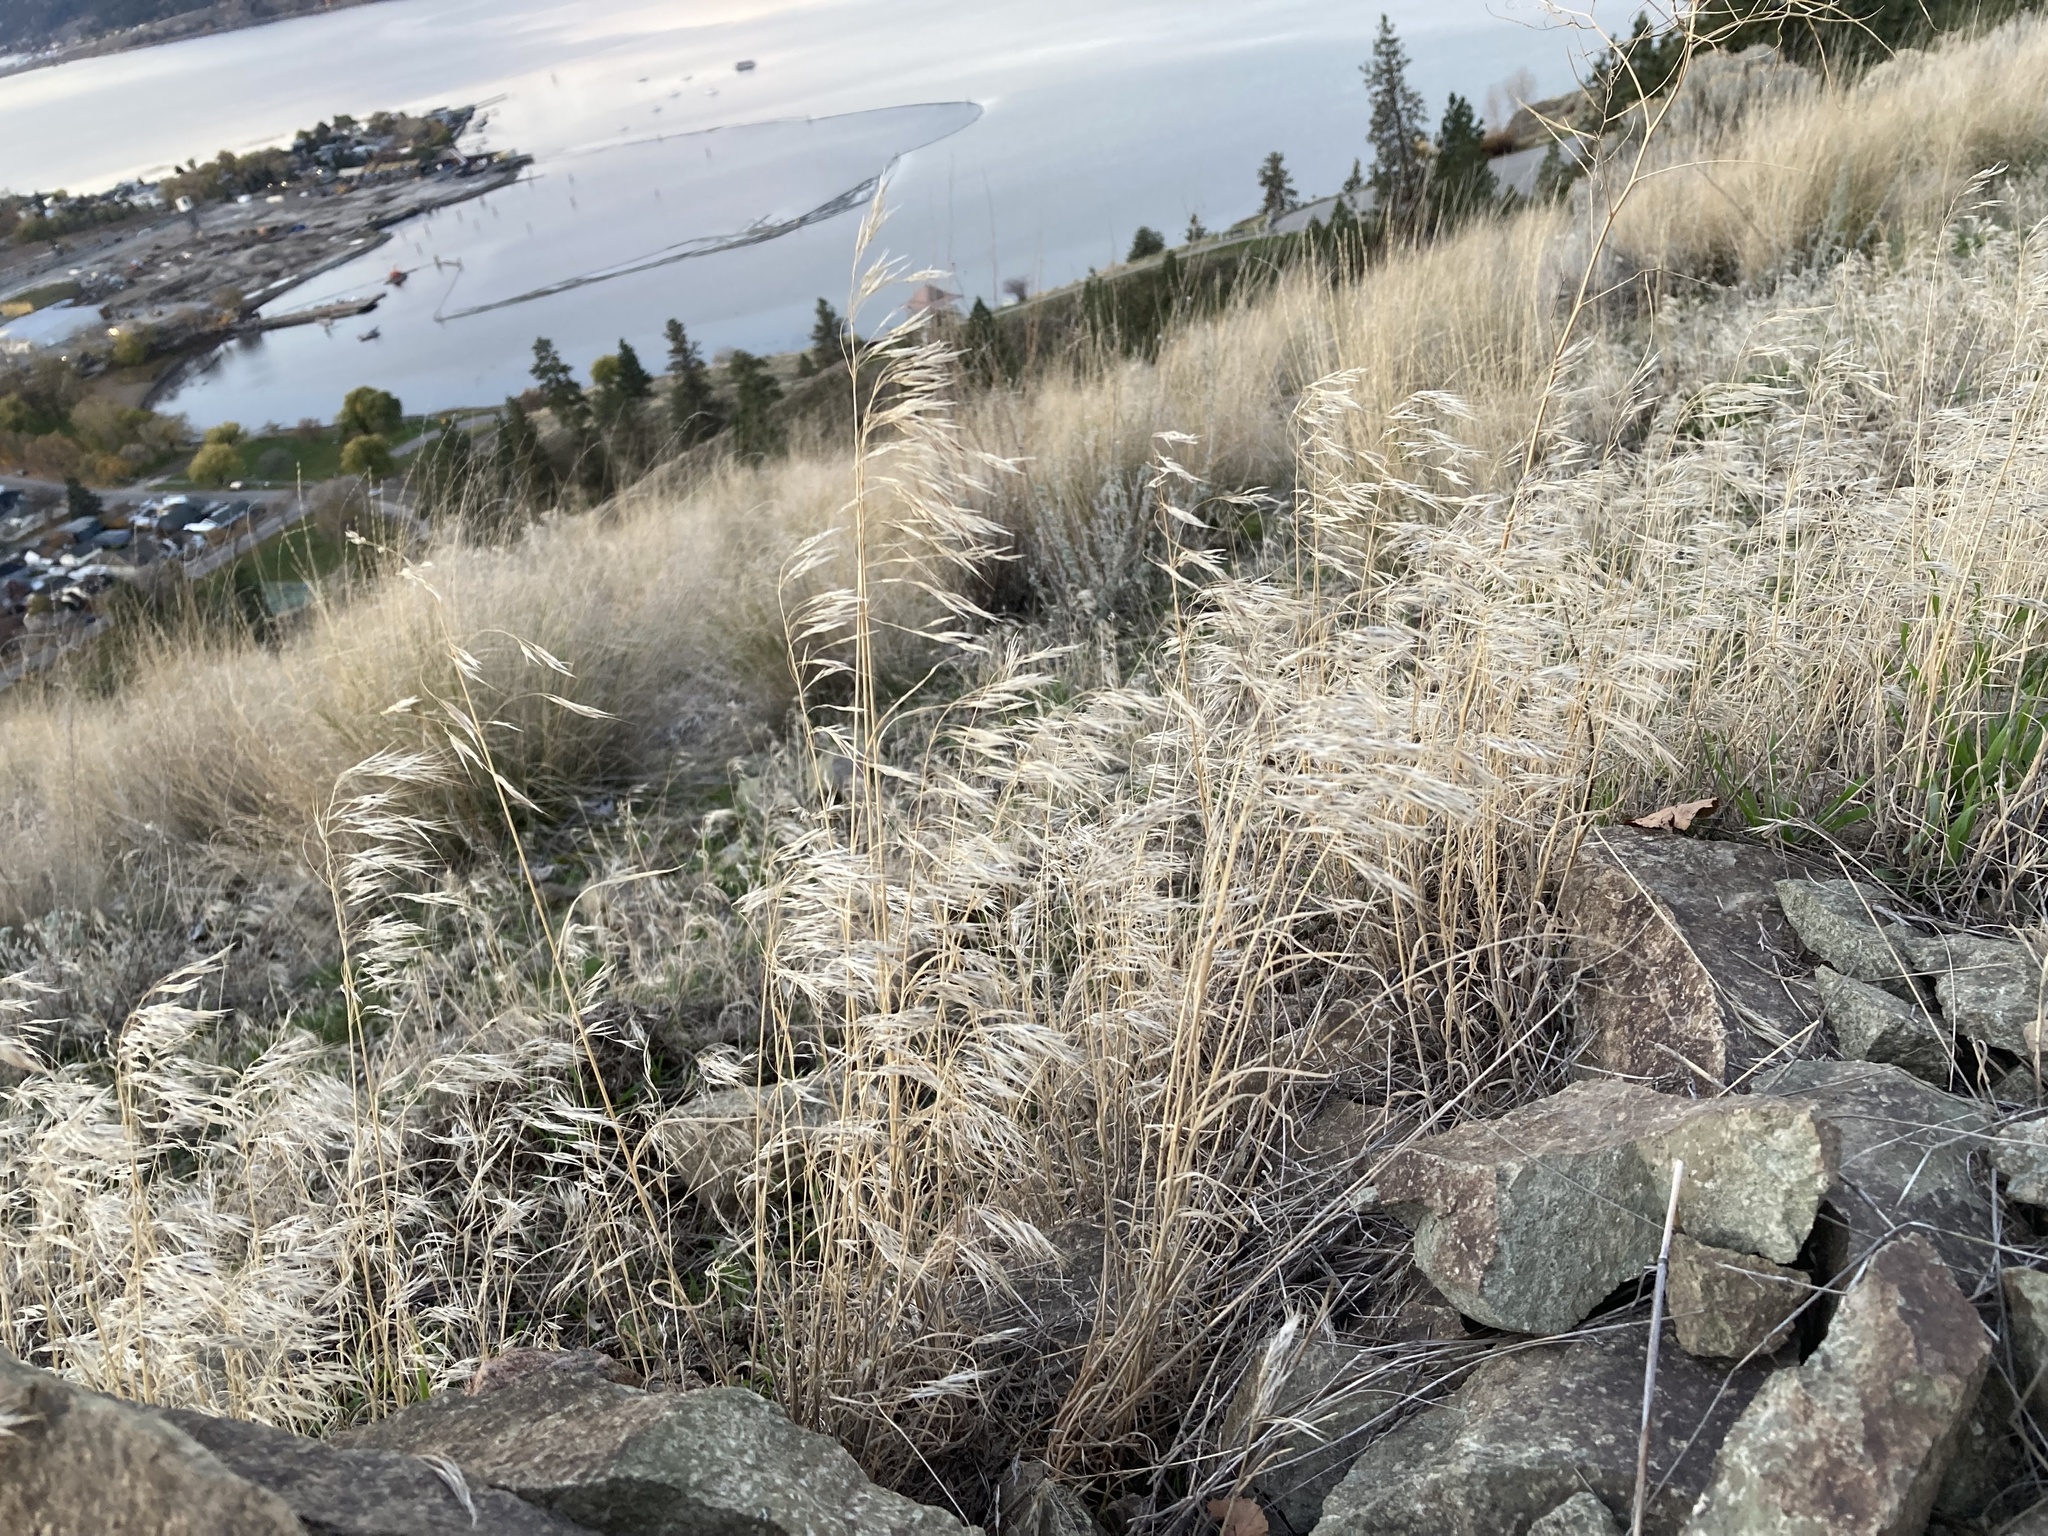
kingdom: Plantae
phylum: Tracheophyta
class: Liliopsida
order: Poales
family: Poaceae
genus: Bromus
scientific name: Bromus tectorum
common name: Cheatgrass
